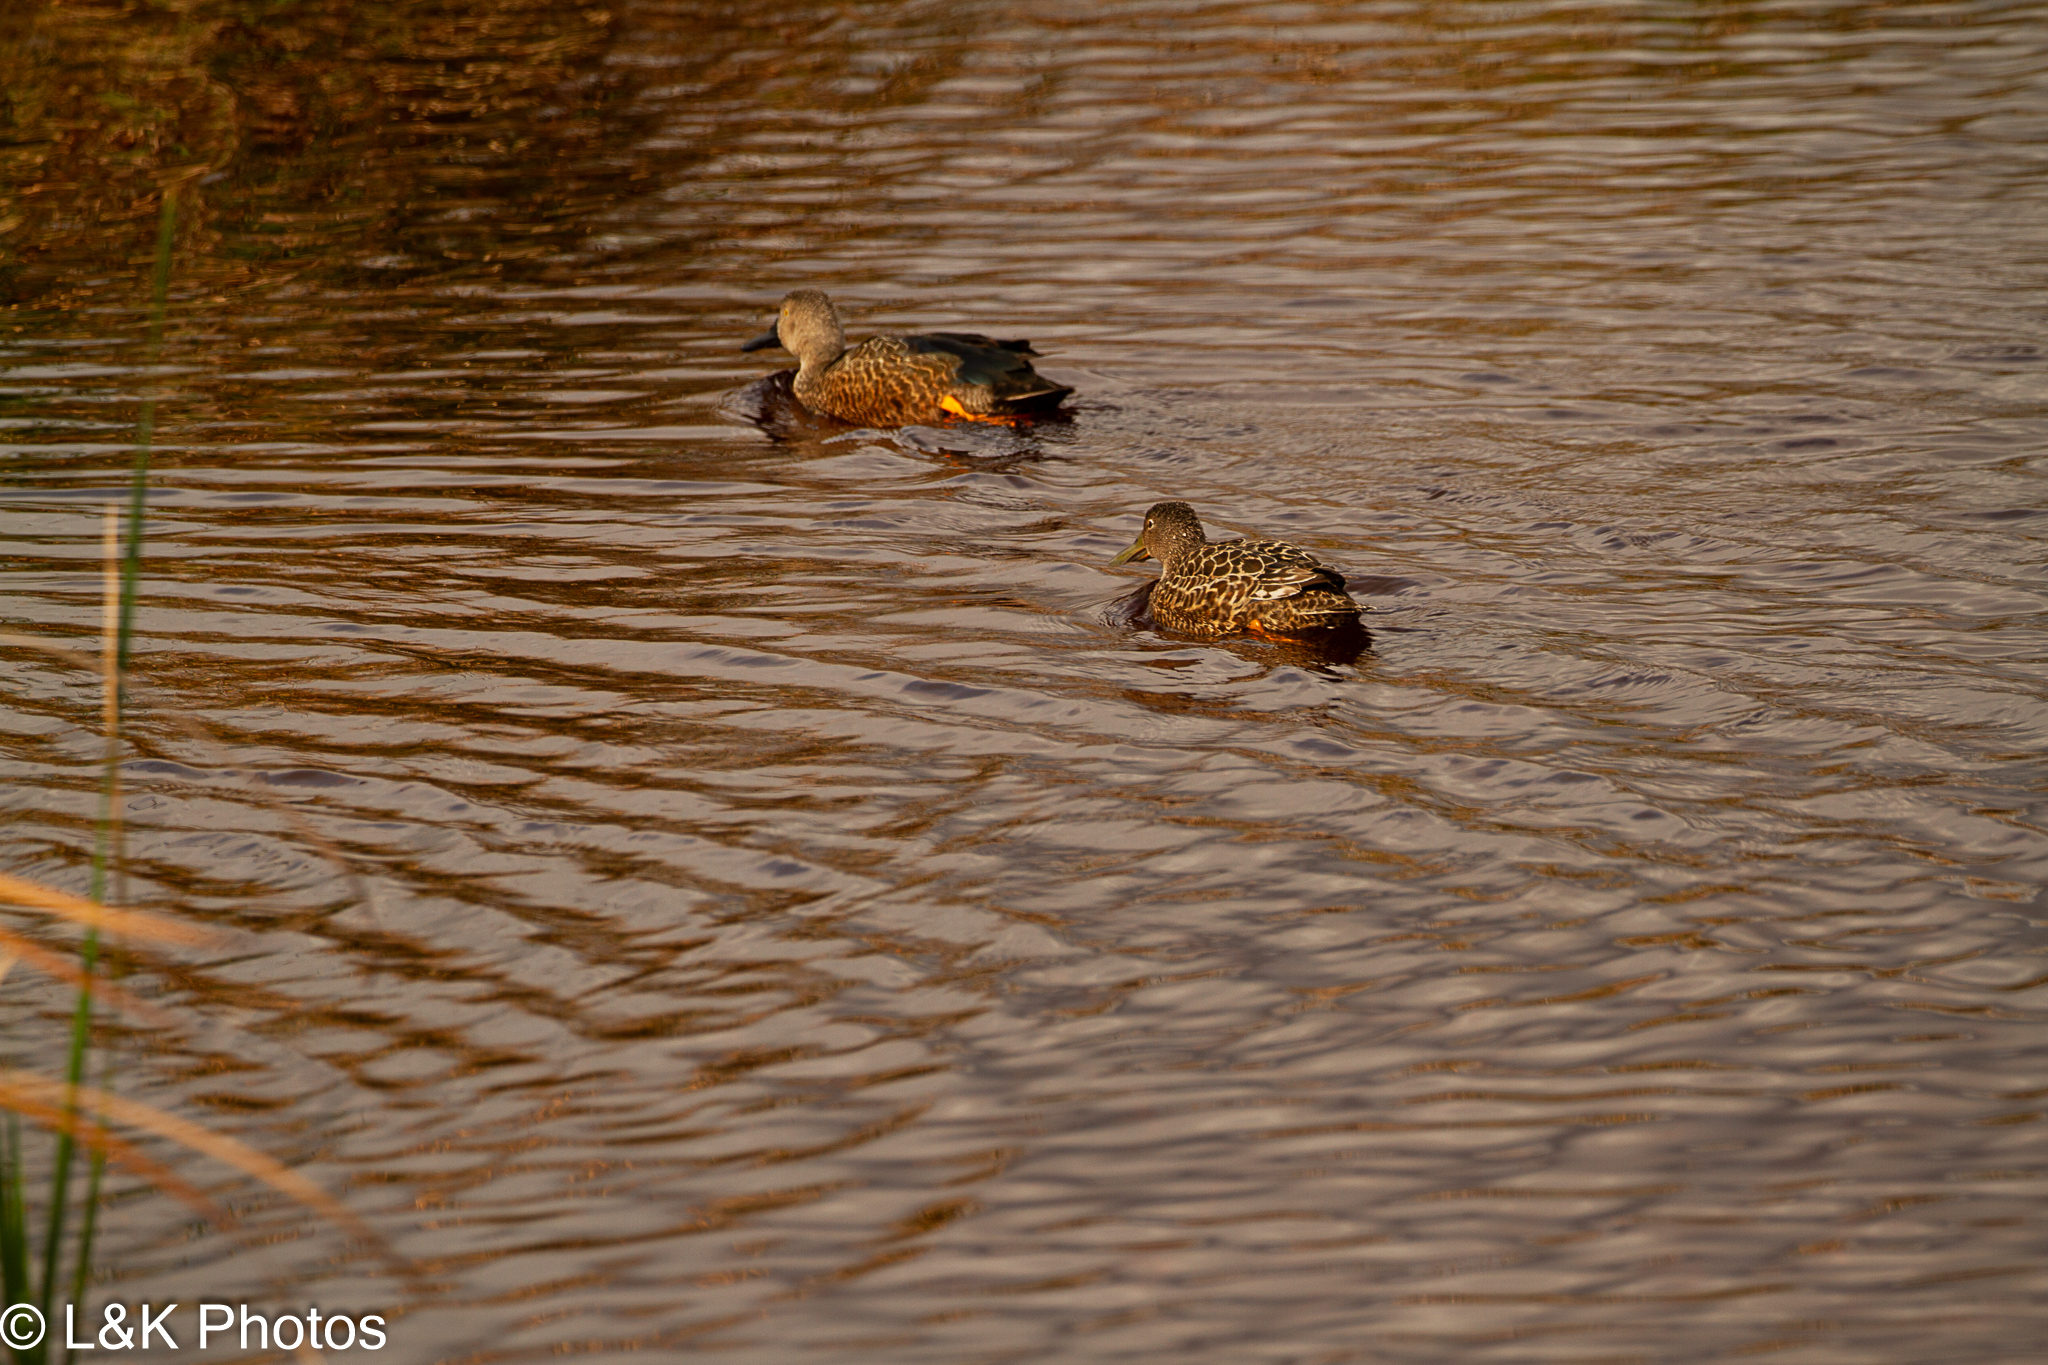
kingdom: Animalia
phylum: Chordata
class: Aves
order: Anseriformes
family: Anatidae
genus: Spatula
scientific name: Spatula smithii
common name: Cape shoveler
